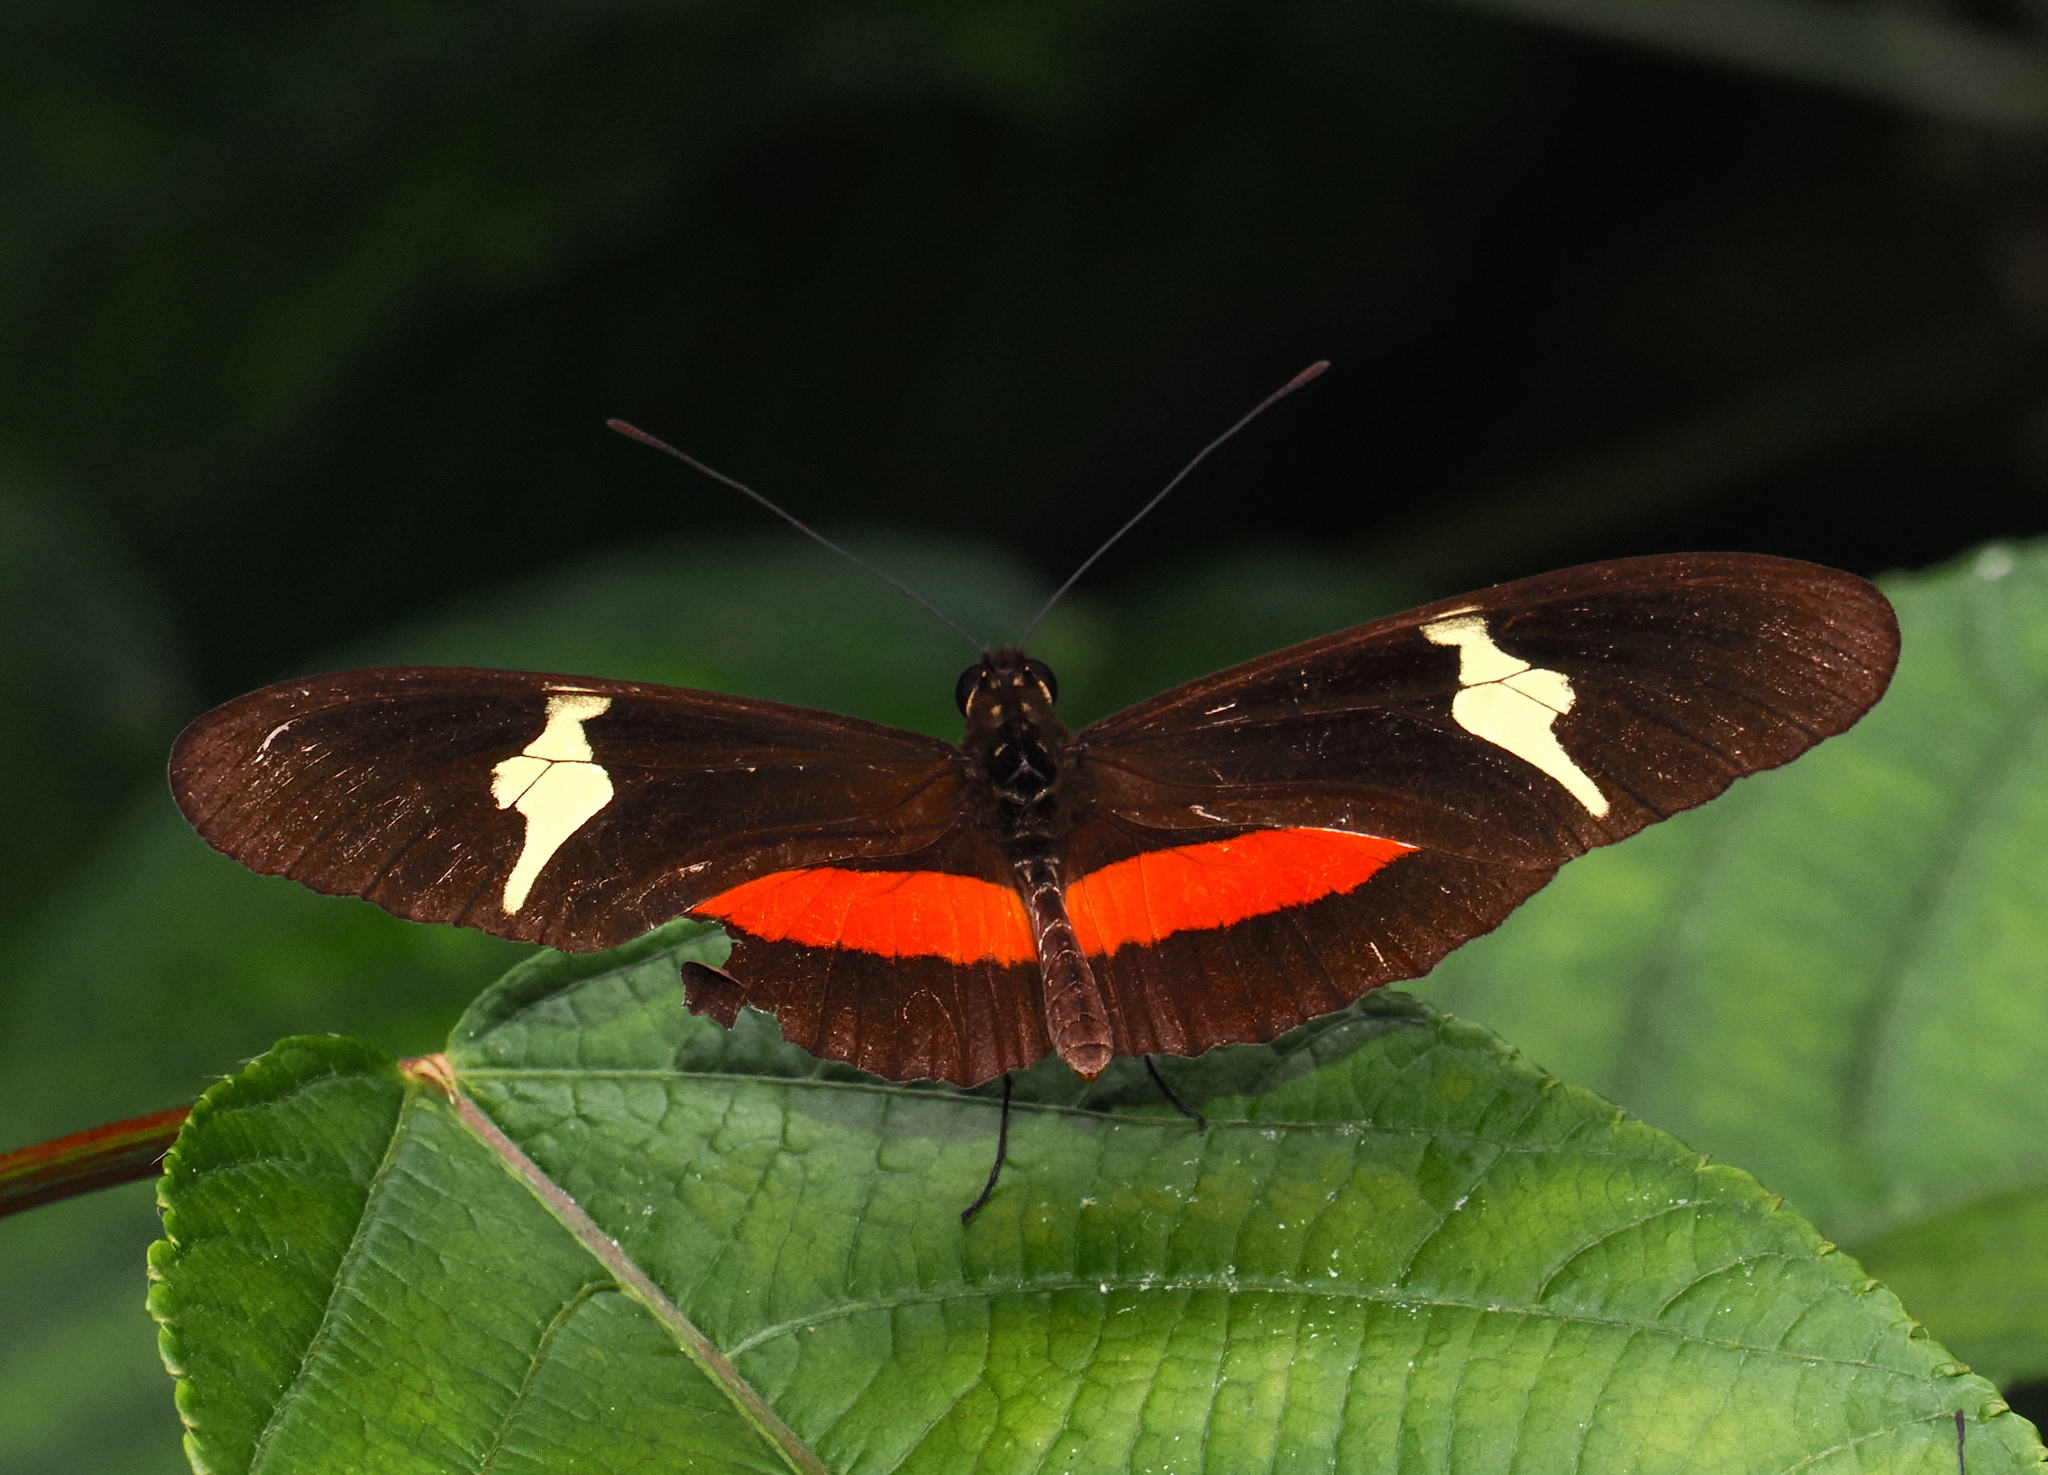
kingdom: Animalia
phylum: Arthropoda
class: Insecta
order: Lepidoptera
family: Nymphalidae
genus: Heliconius
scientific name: Heliconius clysonymus
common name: Clysonymus longwing
